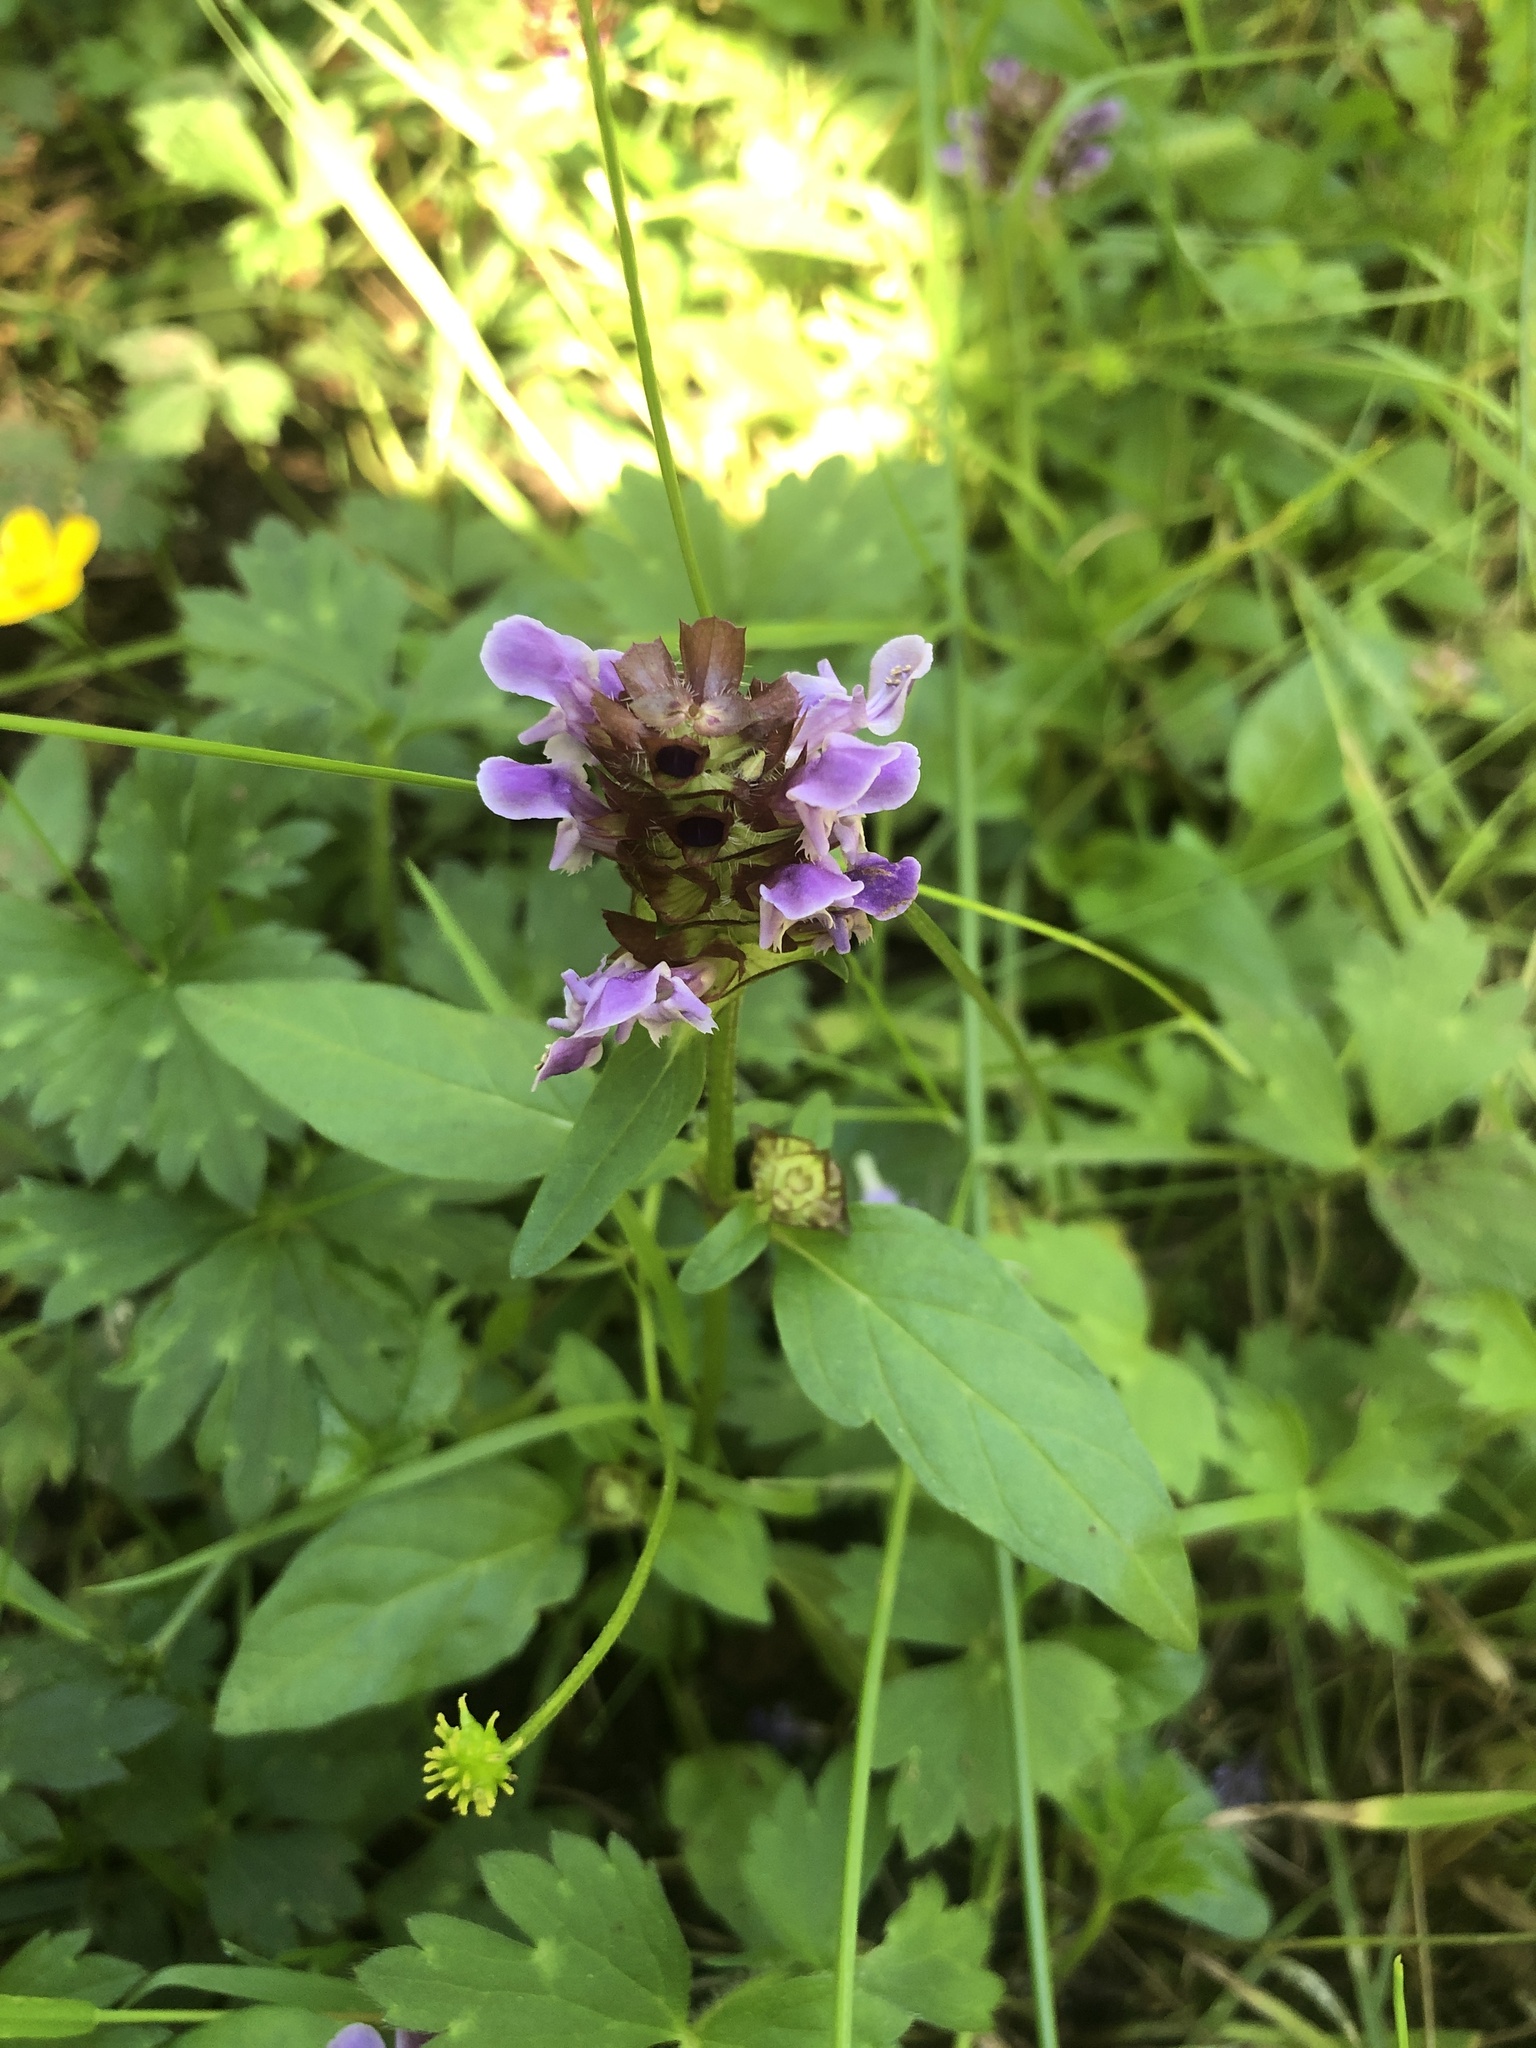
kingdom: Plantae
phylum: Tracheophyta
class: Magnoliopsida
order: Lamiales
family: Lamiaceae
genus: Prunella
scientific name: Prunella vulgaris
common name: Heal-all
